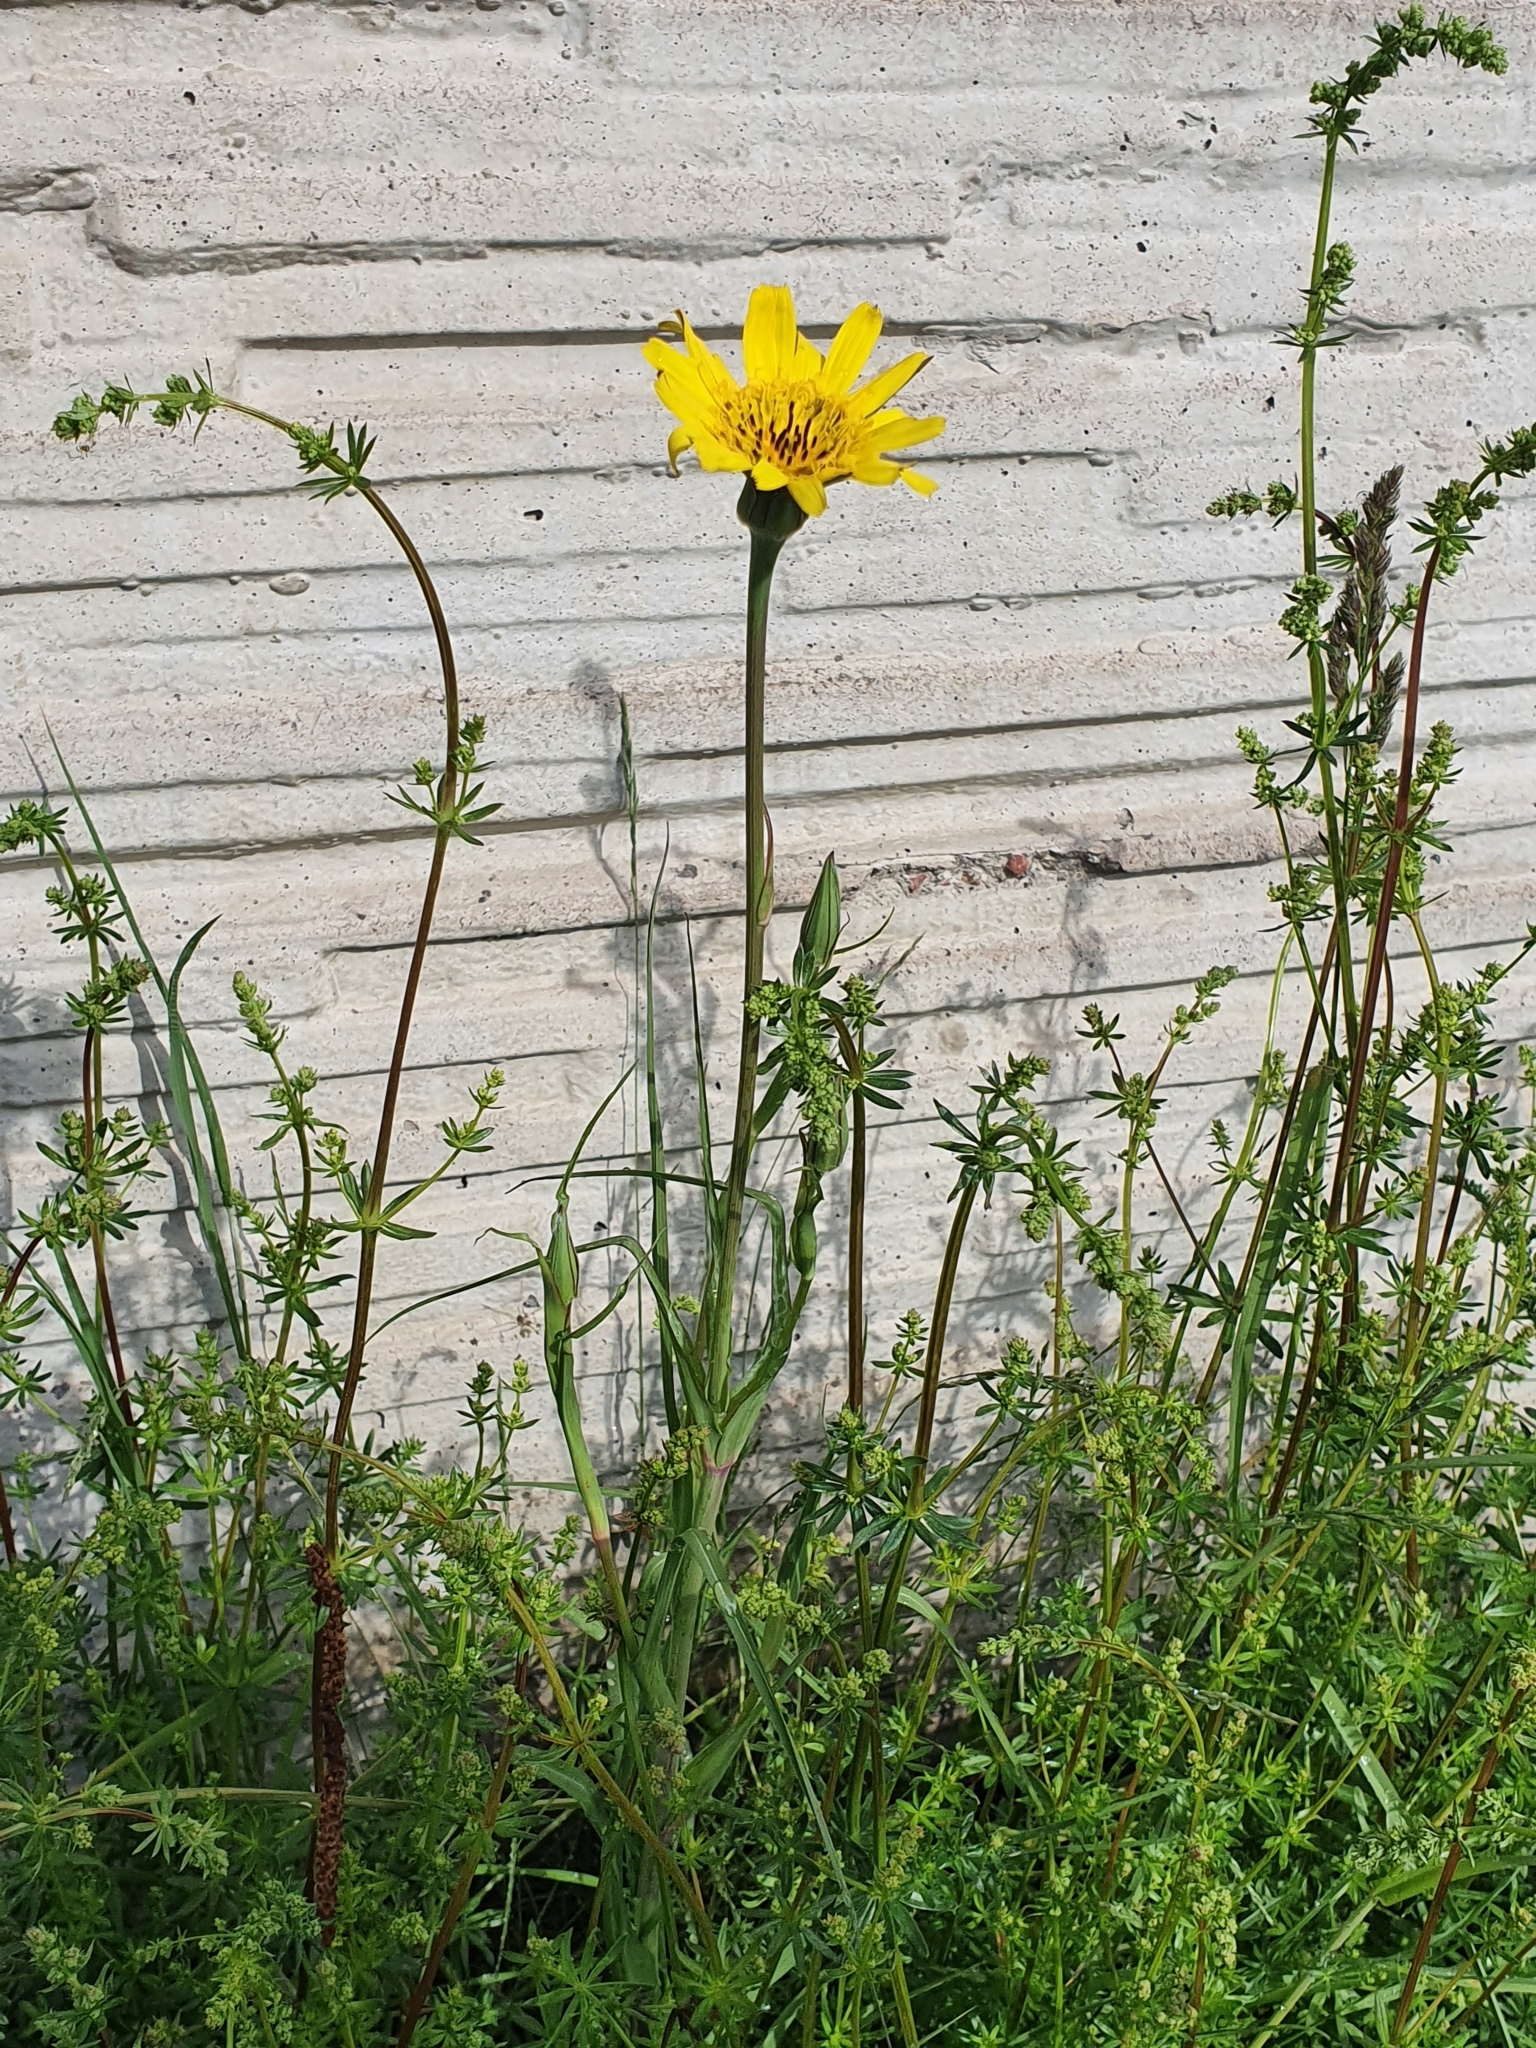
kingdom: Plantae
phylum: Tracheophyta
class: Magnoliopsida
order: Asterales
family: Asteraceae
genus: Tragopogon
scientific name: Tragopogon pratensis
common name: Goat's-beard
